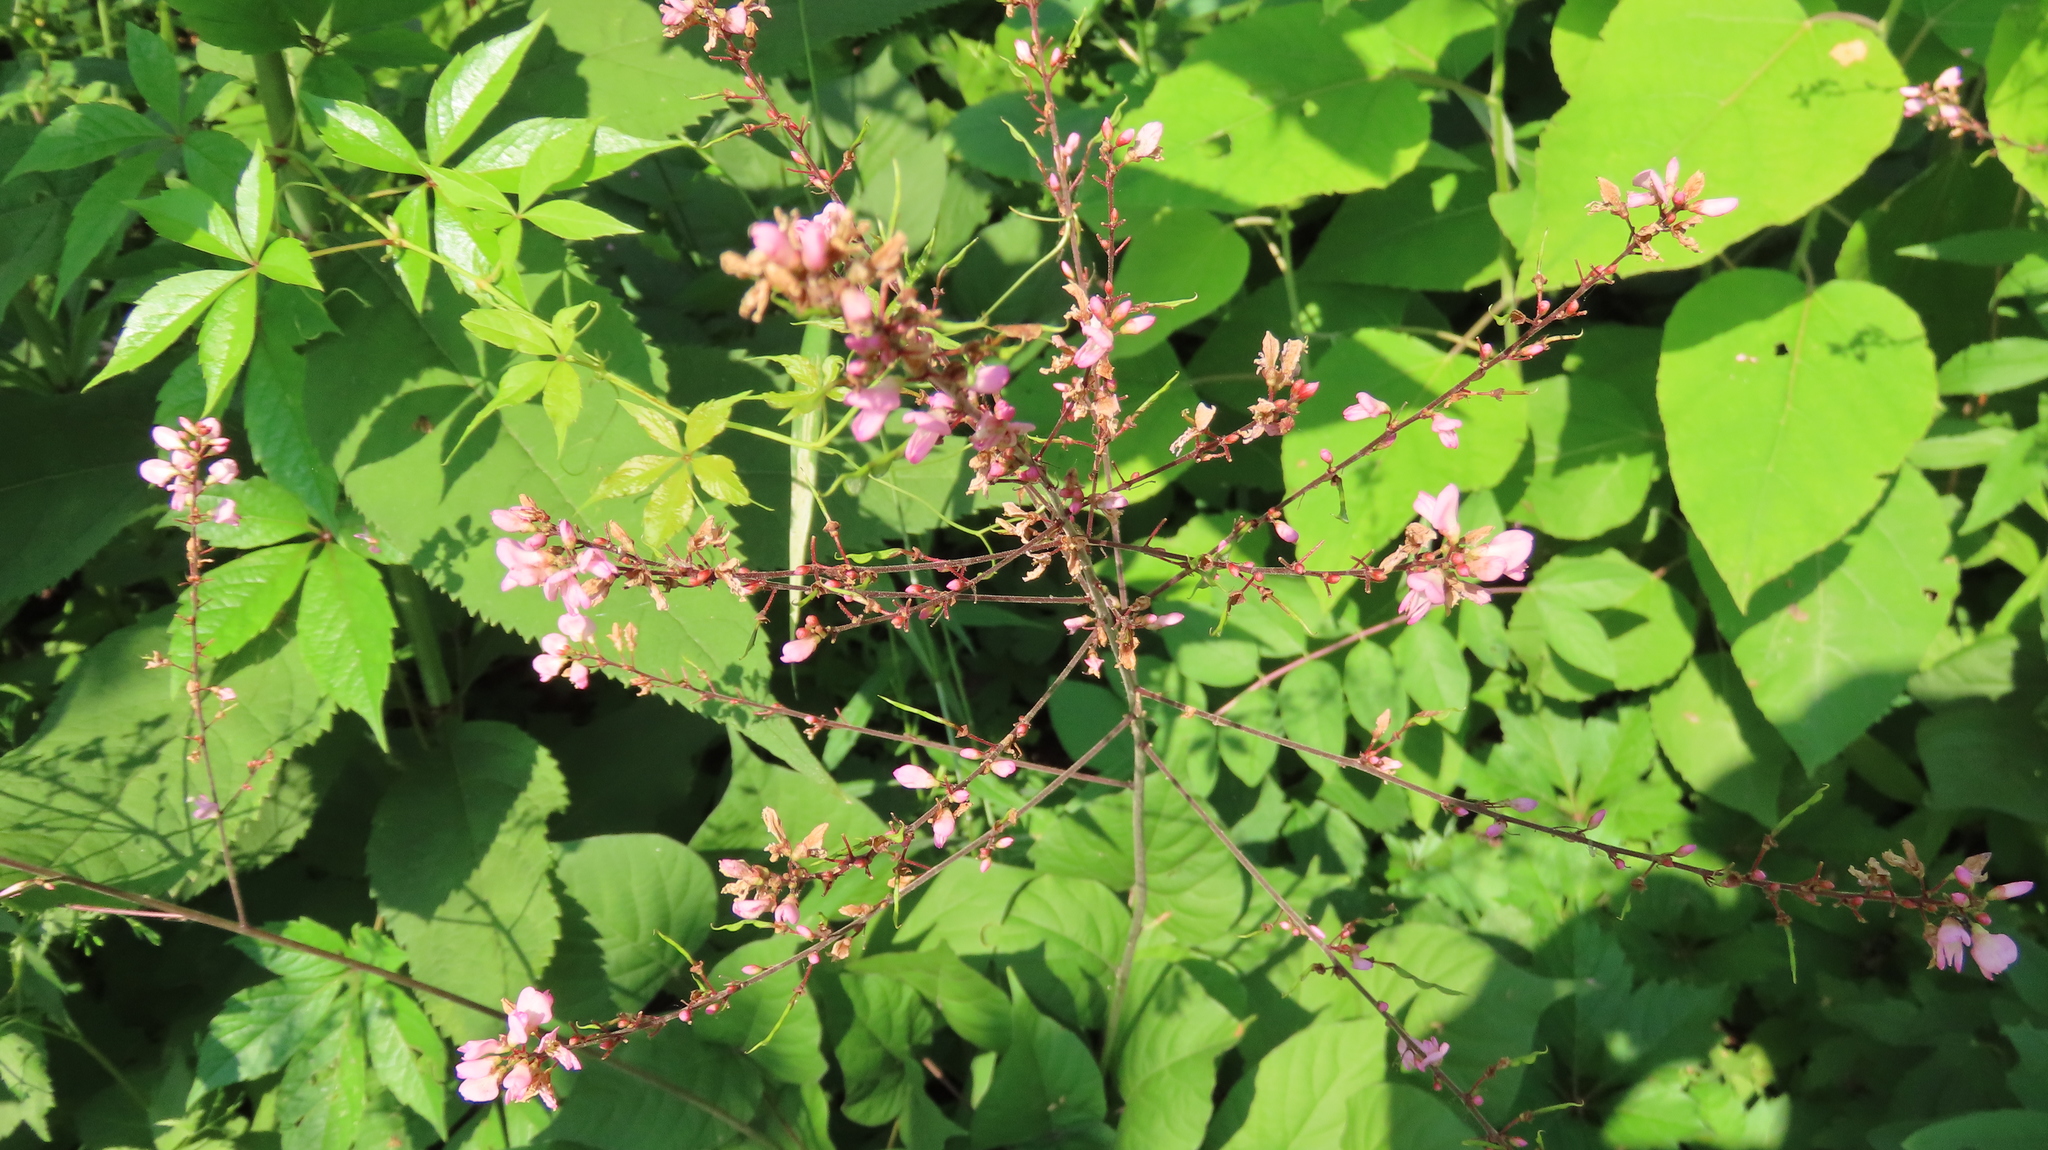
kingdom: Plantae
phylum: Tracheophyta
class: Magnoliopsida
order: Fabales
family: Fabaceae
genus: Hylodesmum
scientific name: Hylodesmum glutinosum
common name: Clustered-leaved tick-trefoil
